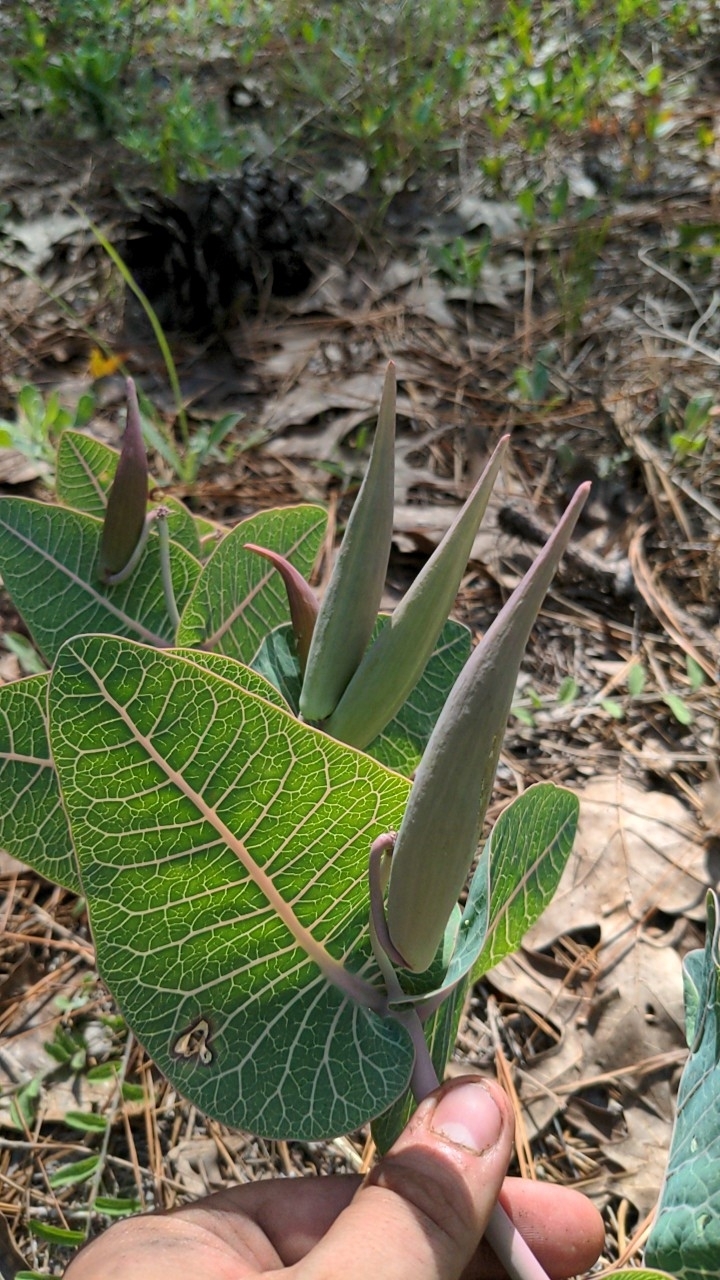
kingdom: Plantae
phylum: Tracheophyta
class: Magnoliopsida
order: Gentianales
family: Apocynaceae
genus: Asclepias
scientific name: Asclepias humistrata
